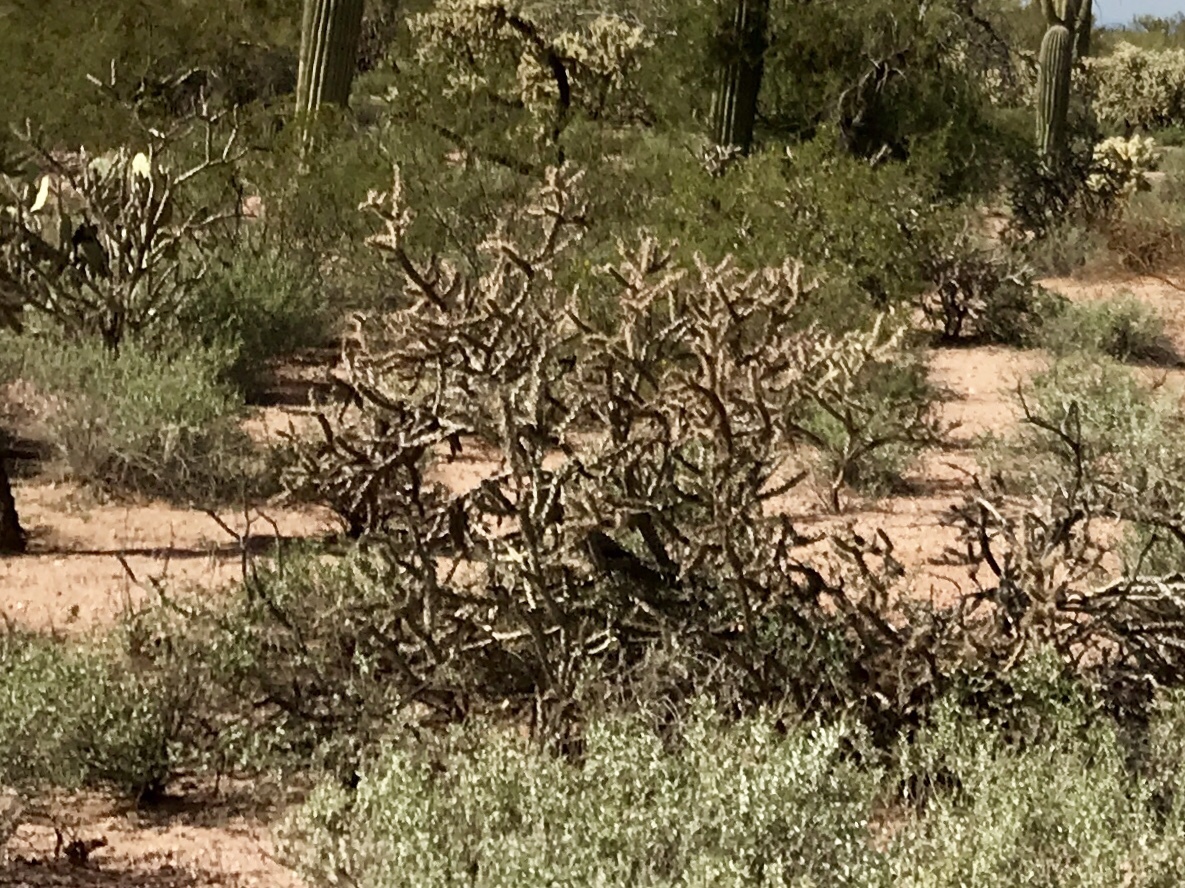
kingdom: Plantae
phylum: Tracheophyta
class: Magnoliopsida
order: Caryophyllales
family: Cactaceae
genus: Cylindropuntia
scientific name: Cylindropuntia thurberi
